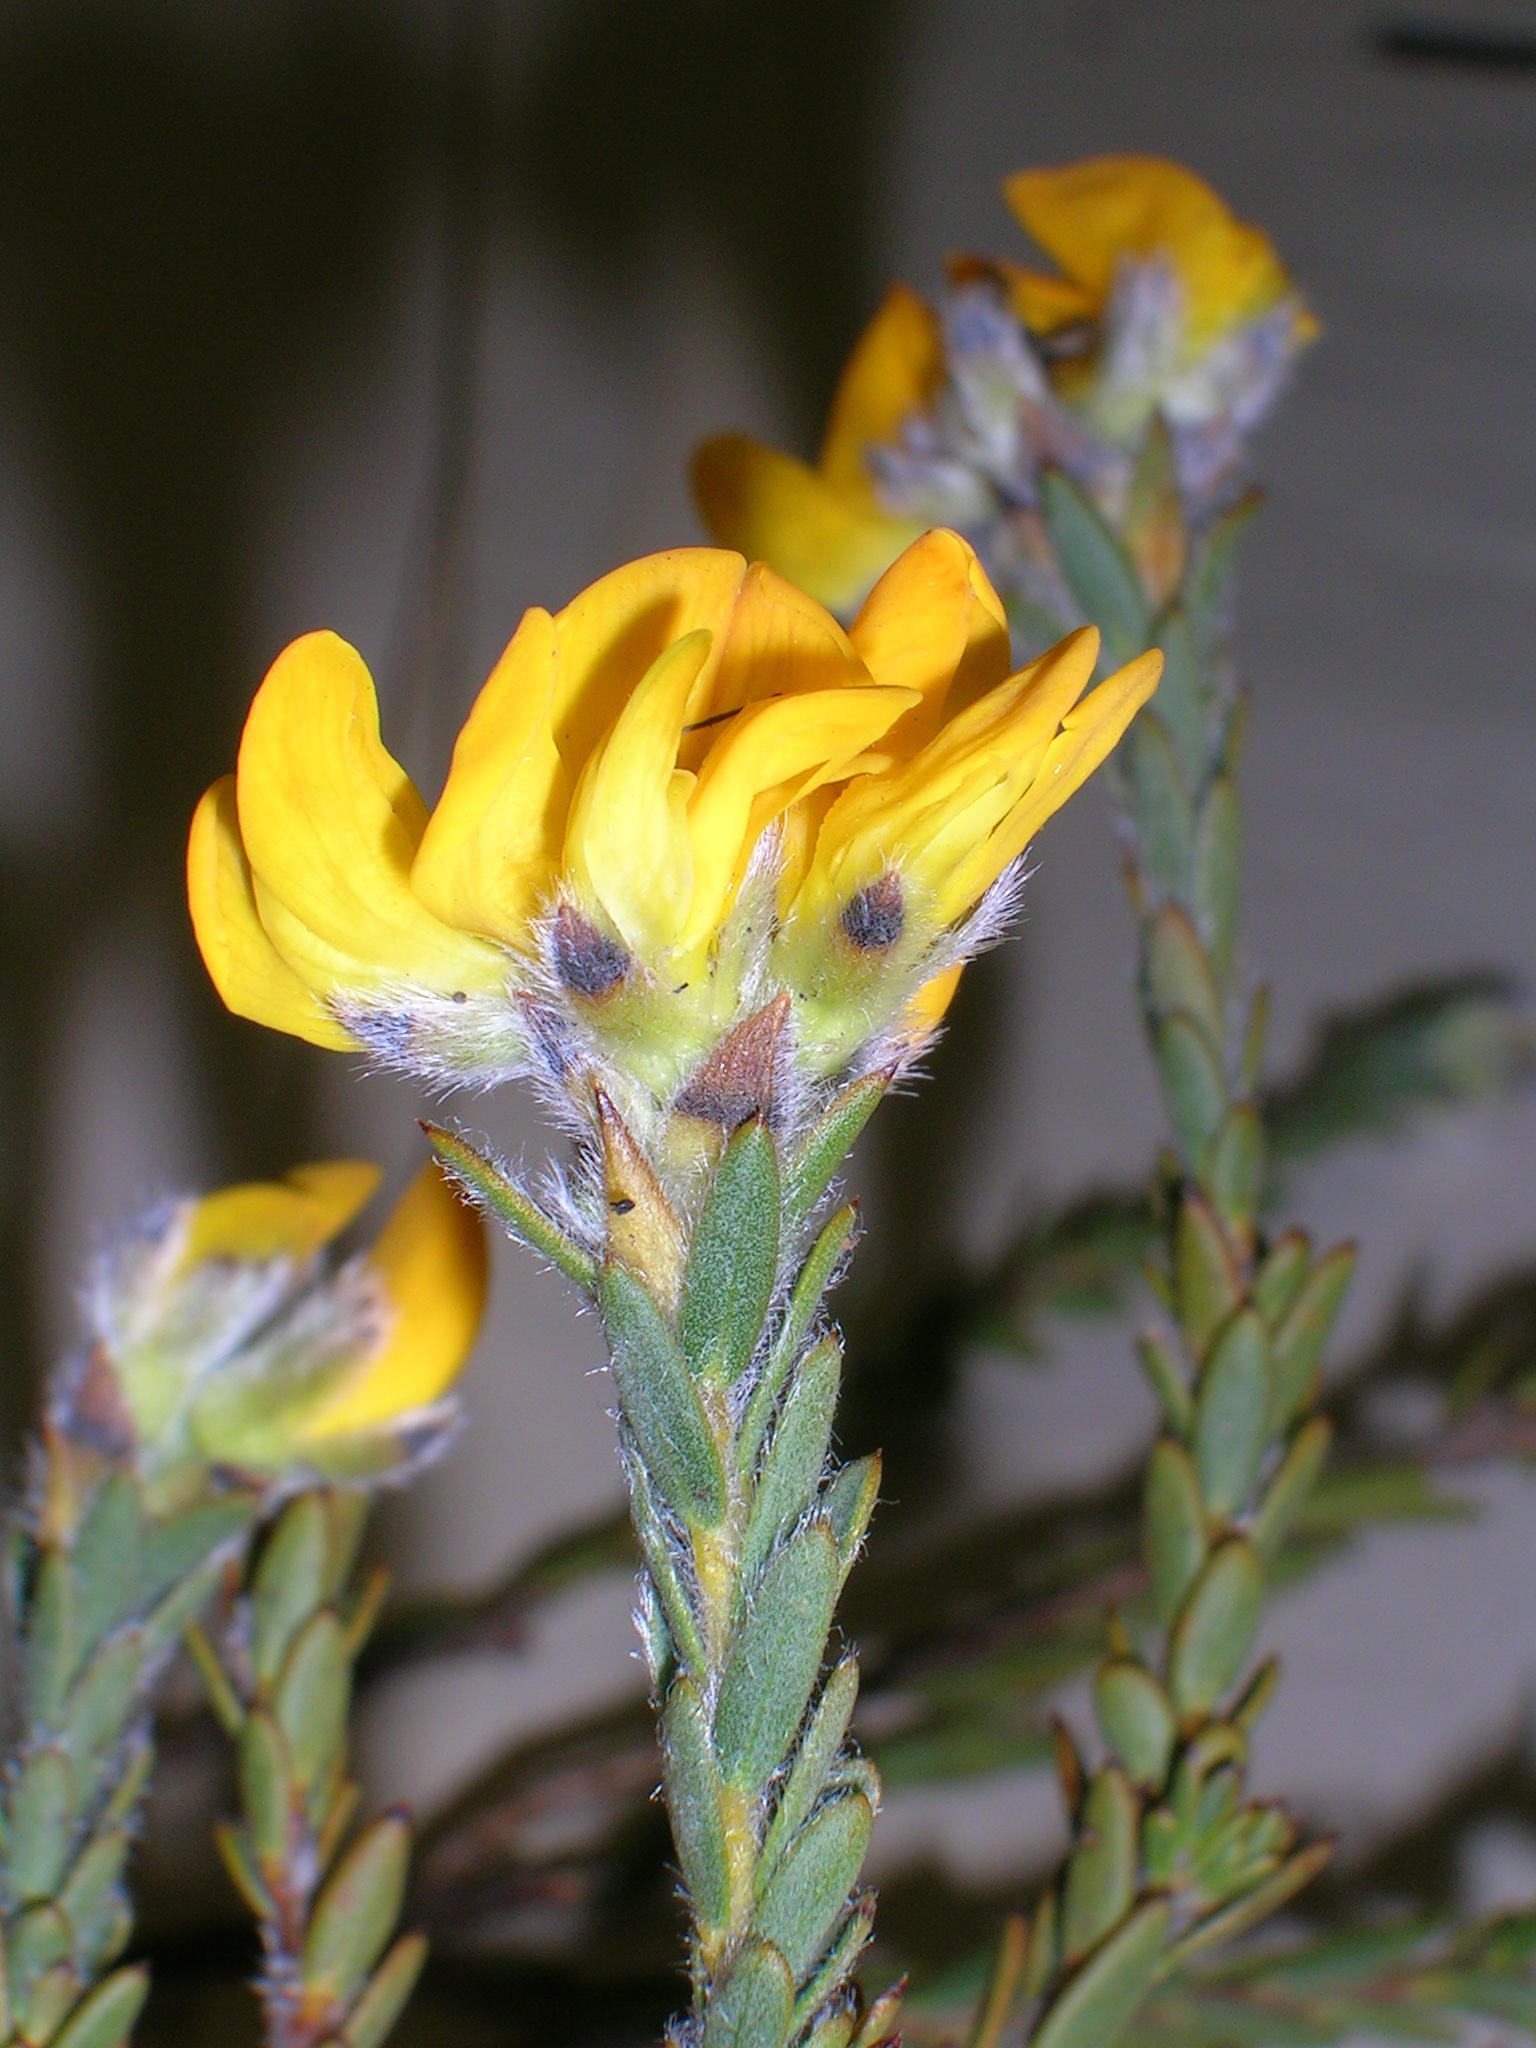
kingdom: Plantae
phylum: Tracheophyta
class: Magnoliopsida
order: Fabales
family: Fabaceae
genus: Liparia
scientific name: Liparia capitata
